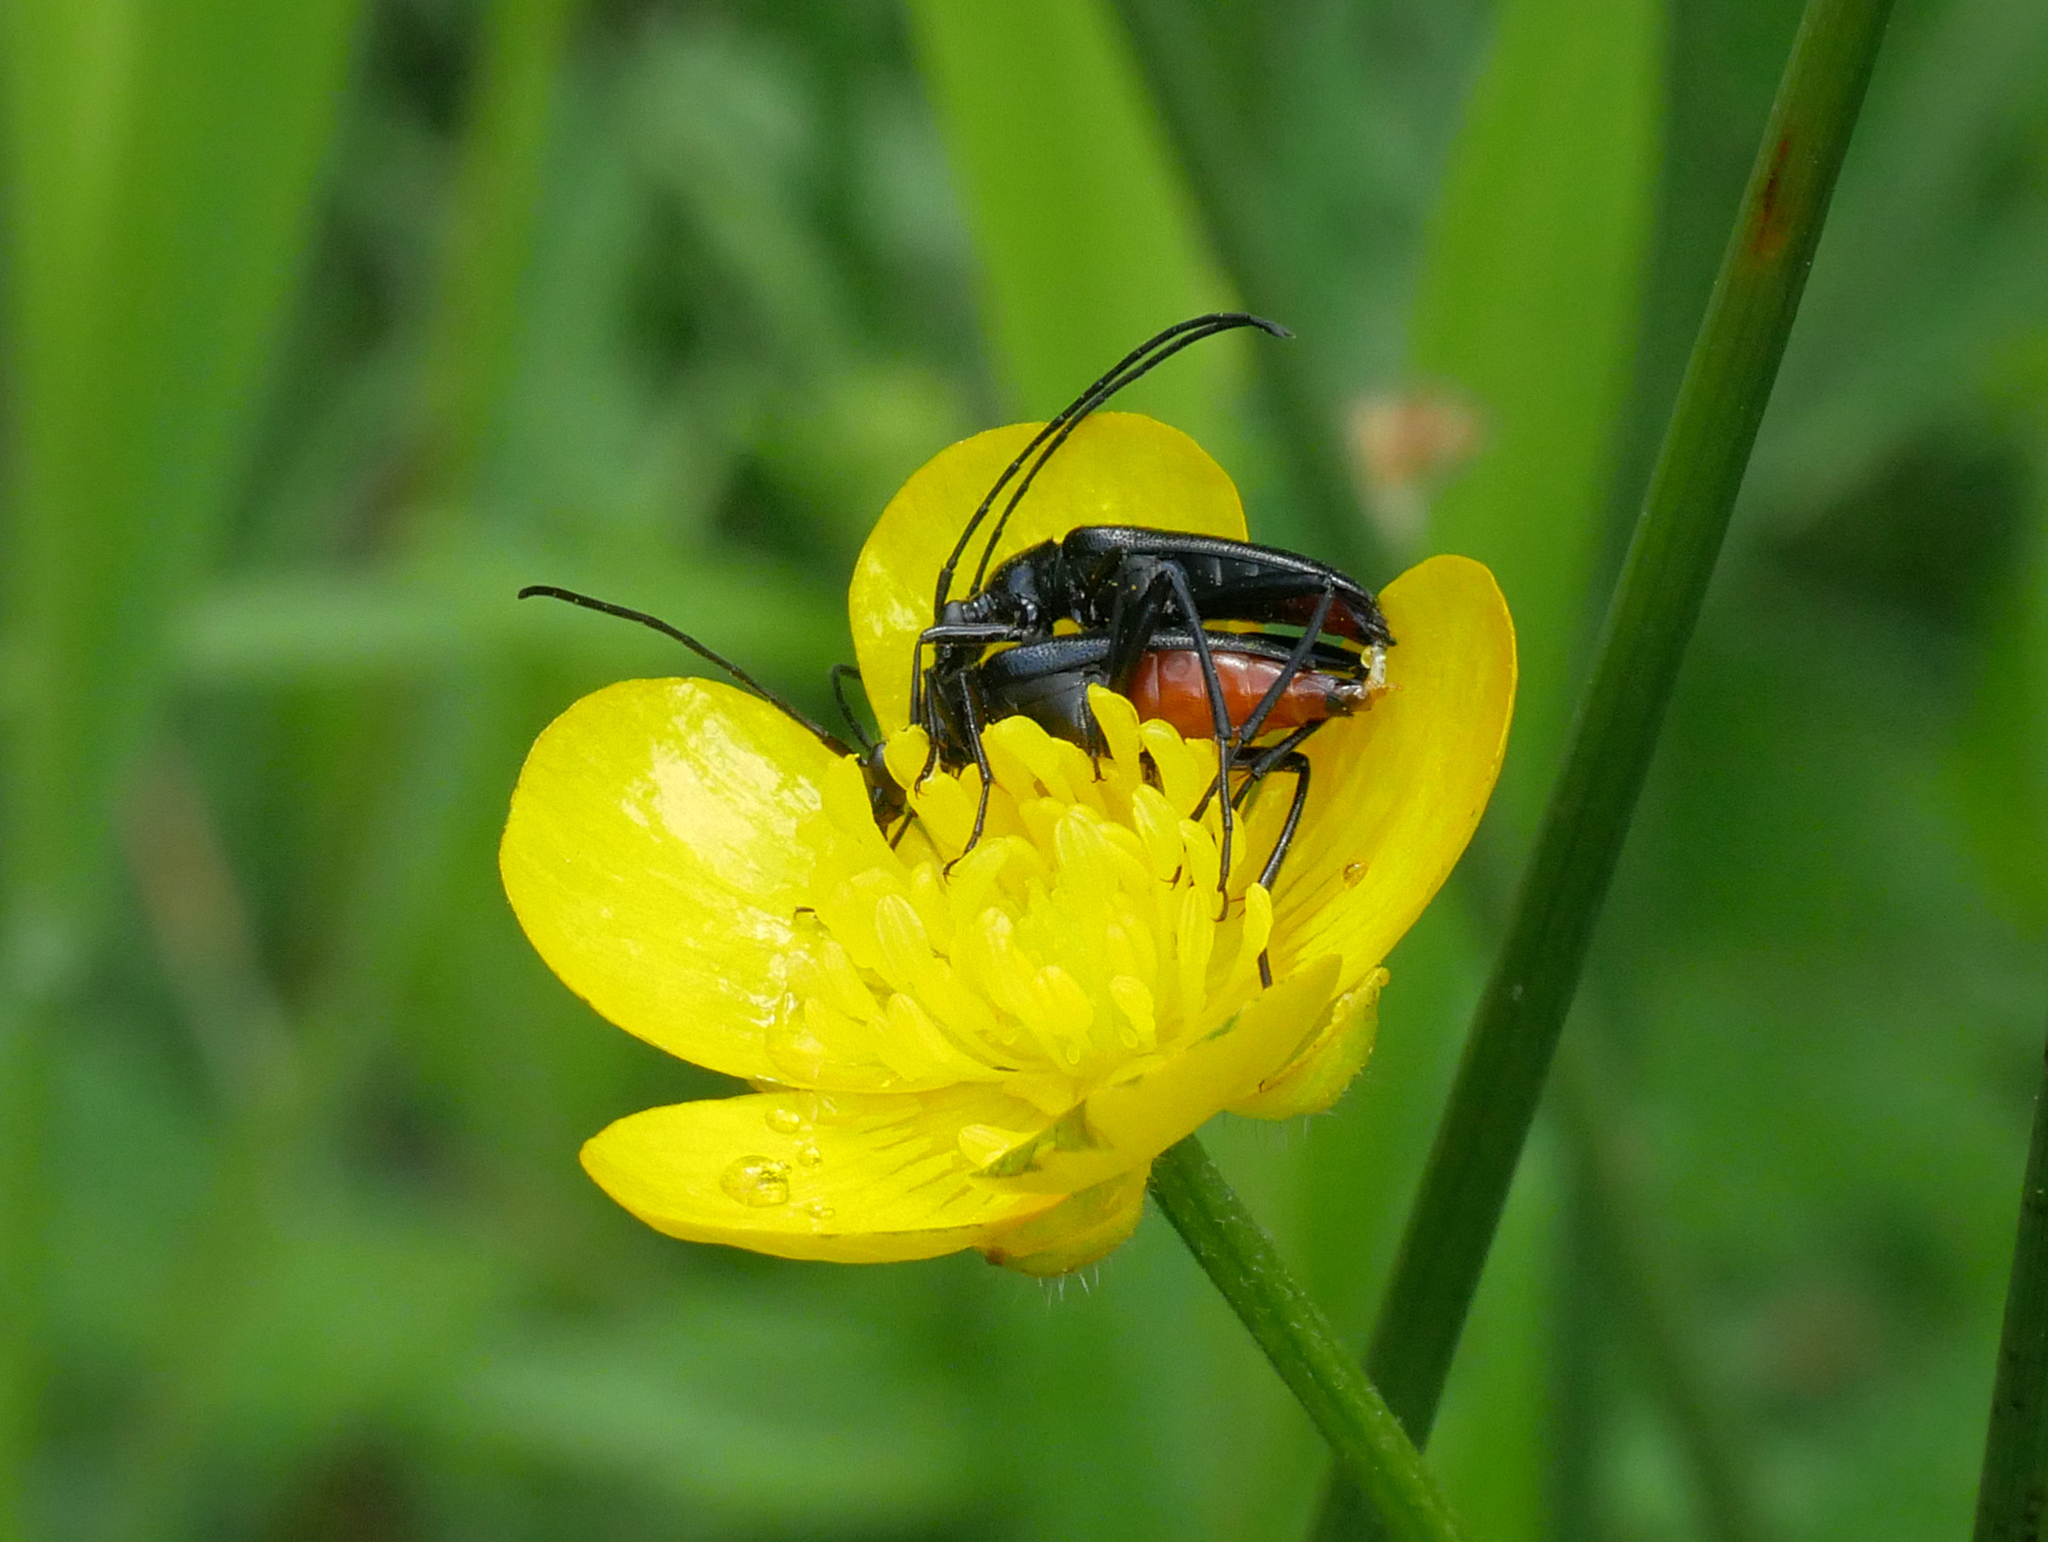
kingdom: Animalia
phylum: Arthropoda
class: Insecta
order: Coleoptera
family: Cerambycidae
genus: Stenurella
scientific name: Stenurella nigra
